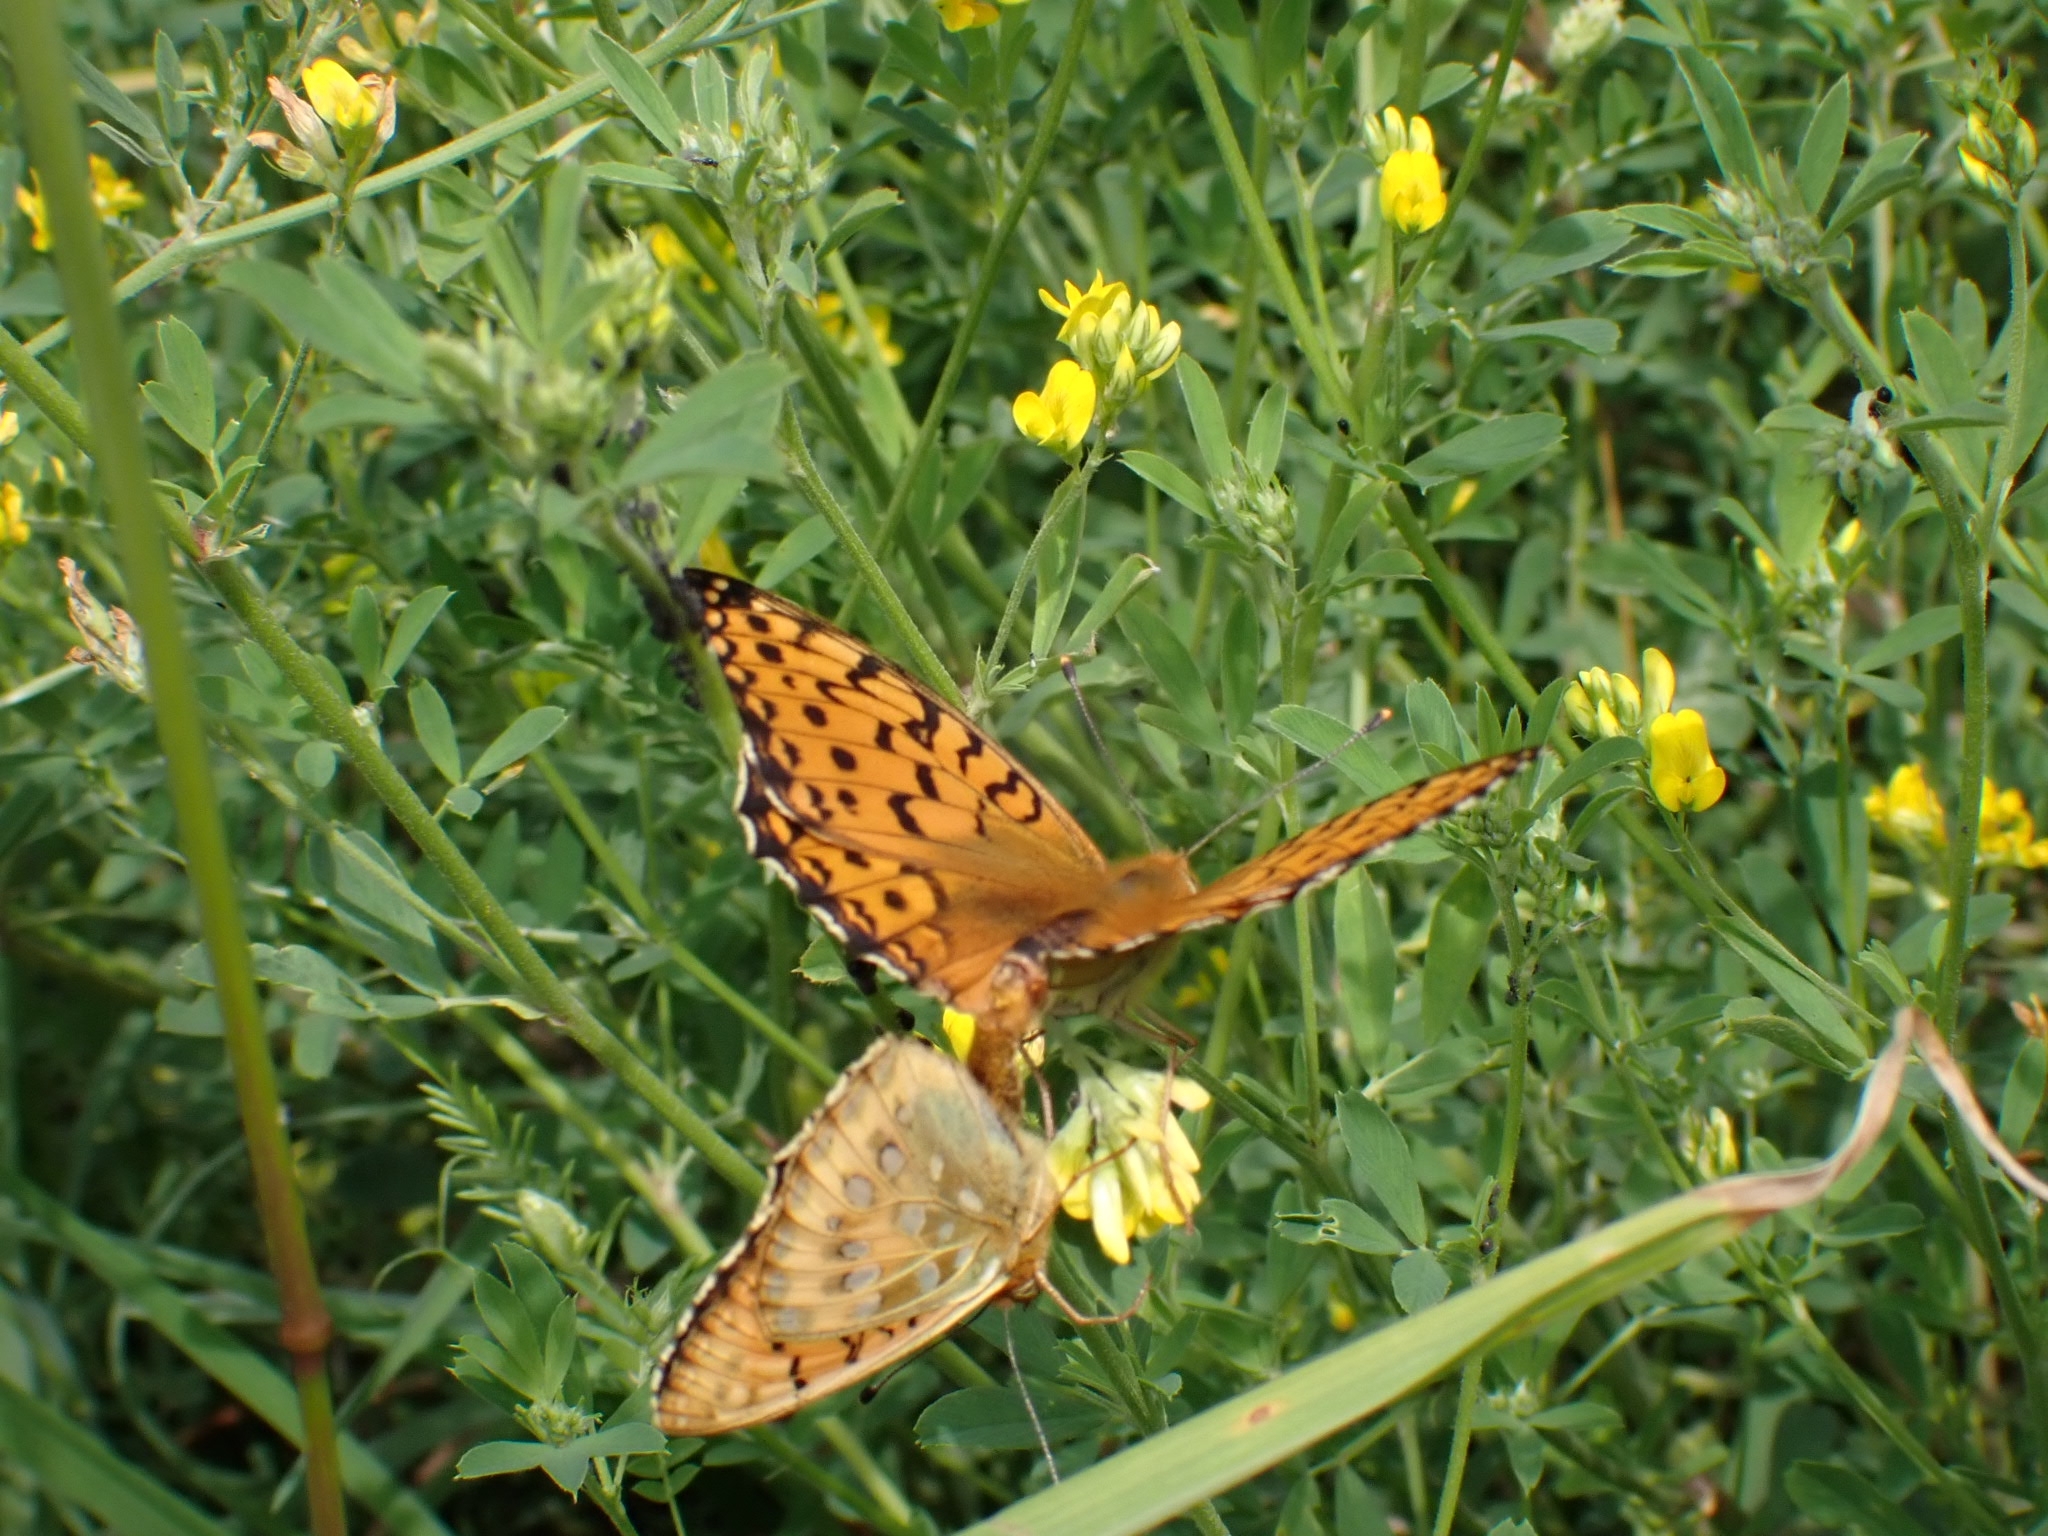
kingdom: Animalia
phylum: Arthropoda
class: Insecta
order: Lepidoptera
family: Nymphalidae
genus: Speyeria
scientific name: Speyeria aglaja
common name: Dark green fritillary
